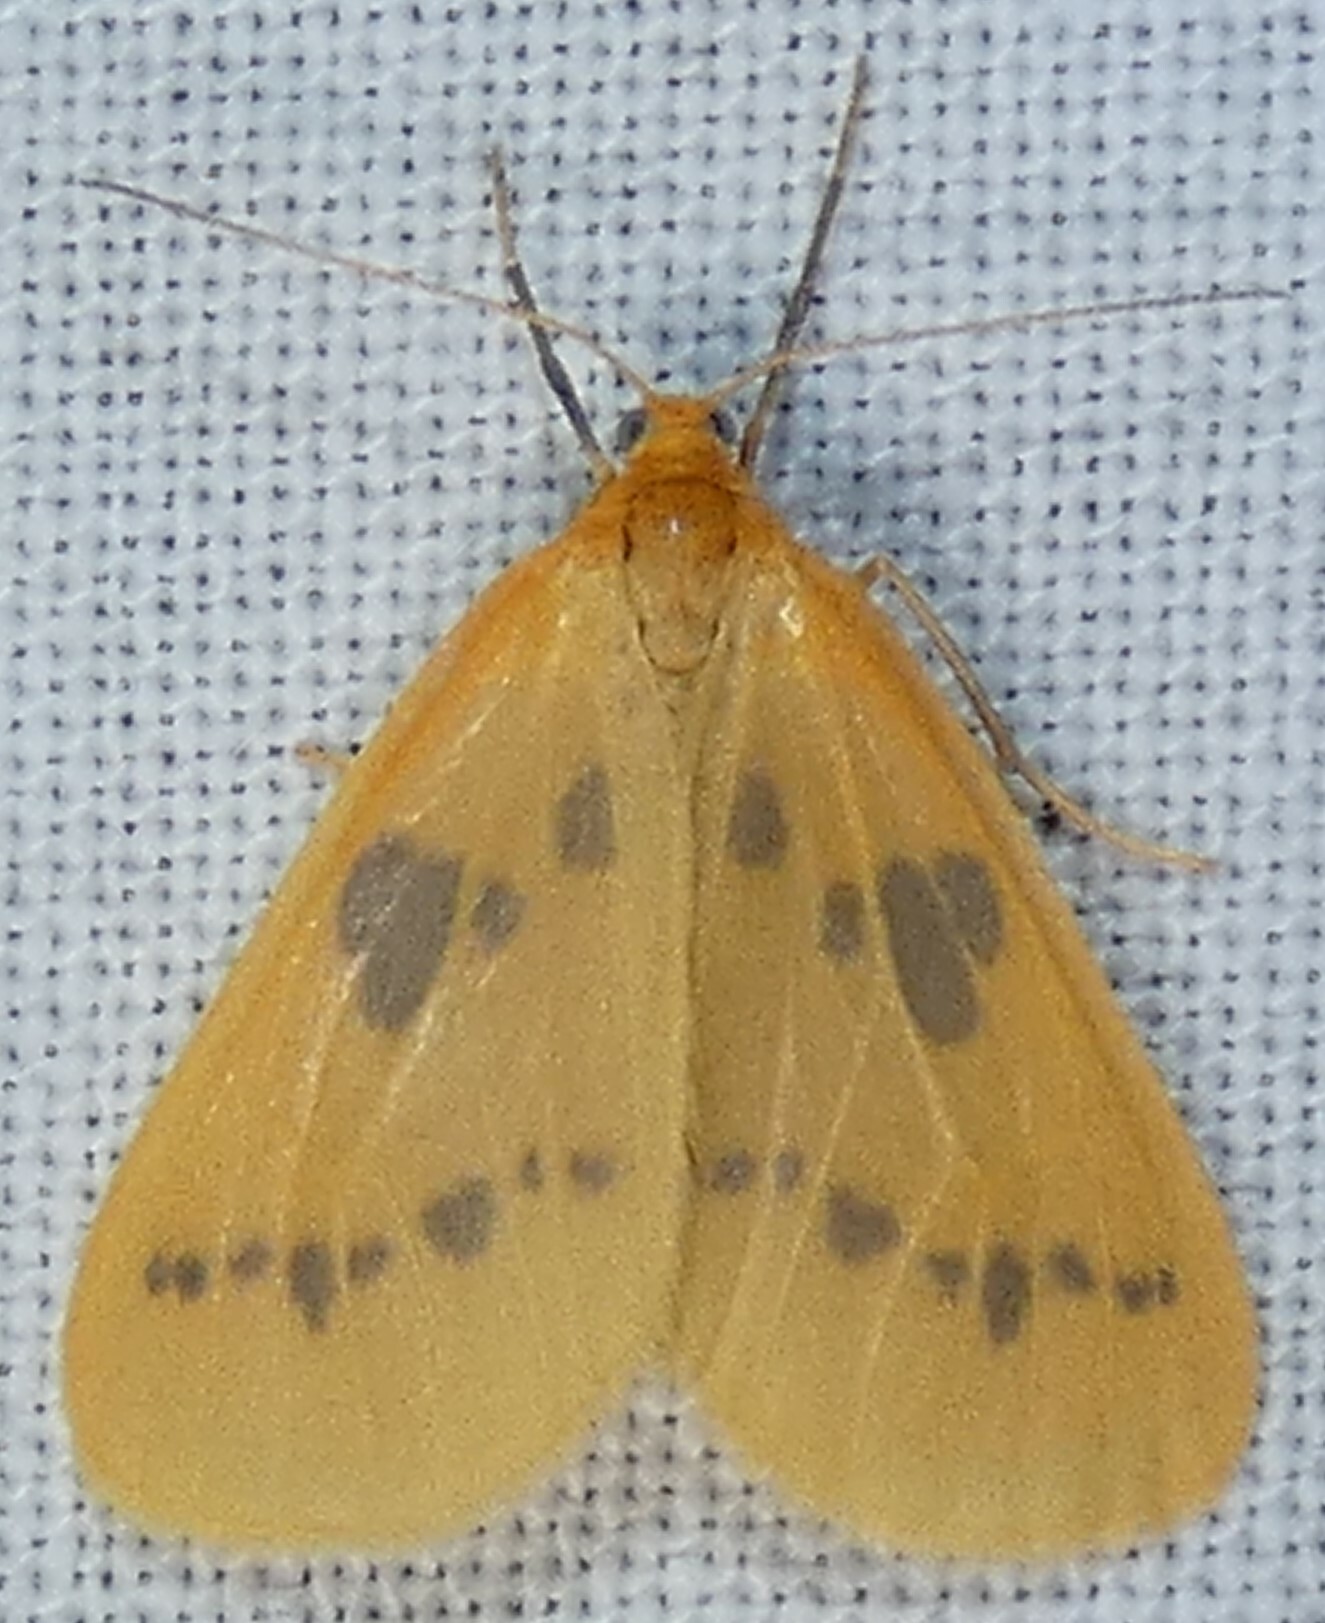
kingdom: Animalia
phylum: Arthropoda
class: Insecta
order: Lepidoptera
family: Geometridae
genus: Eubaphe
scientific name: Eubaphe meridiana
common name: Little beggar
